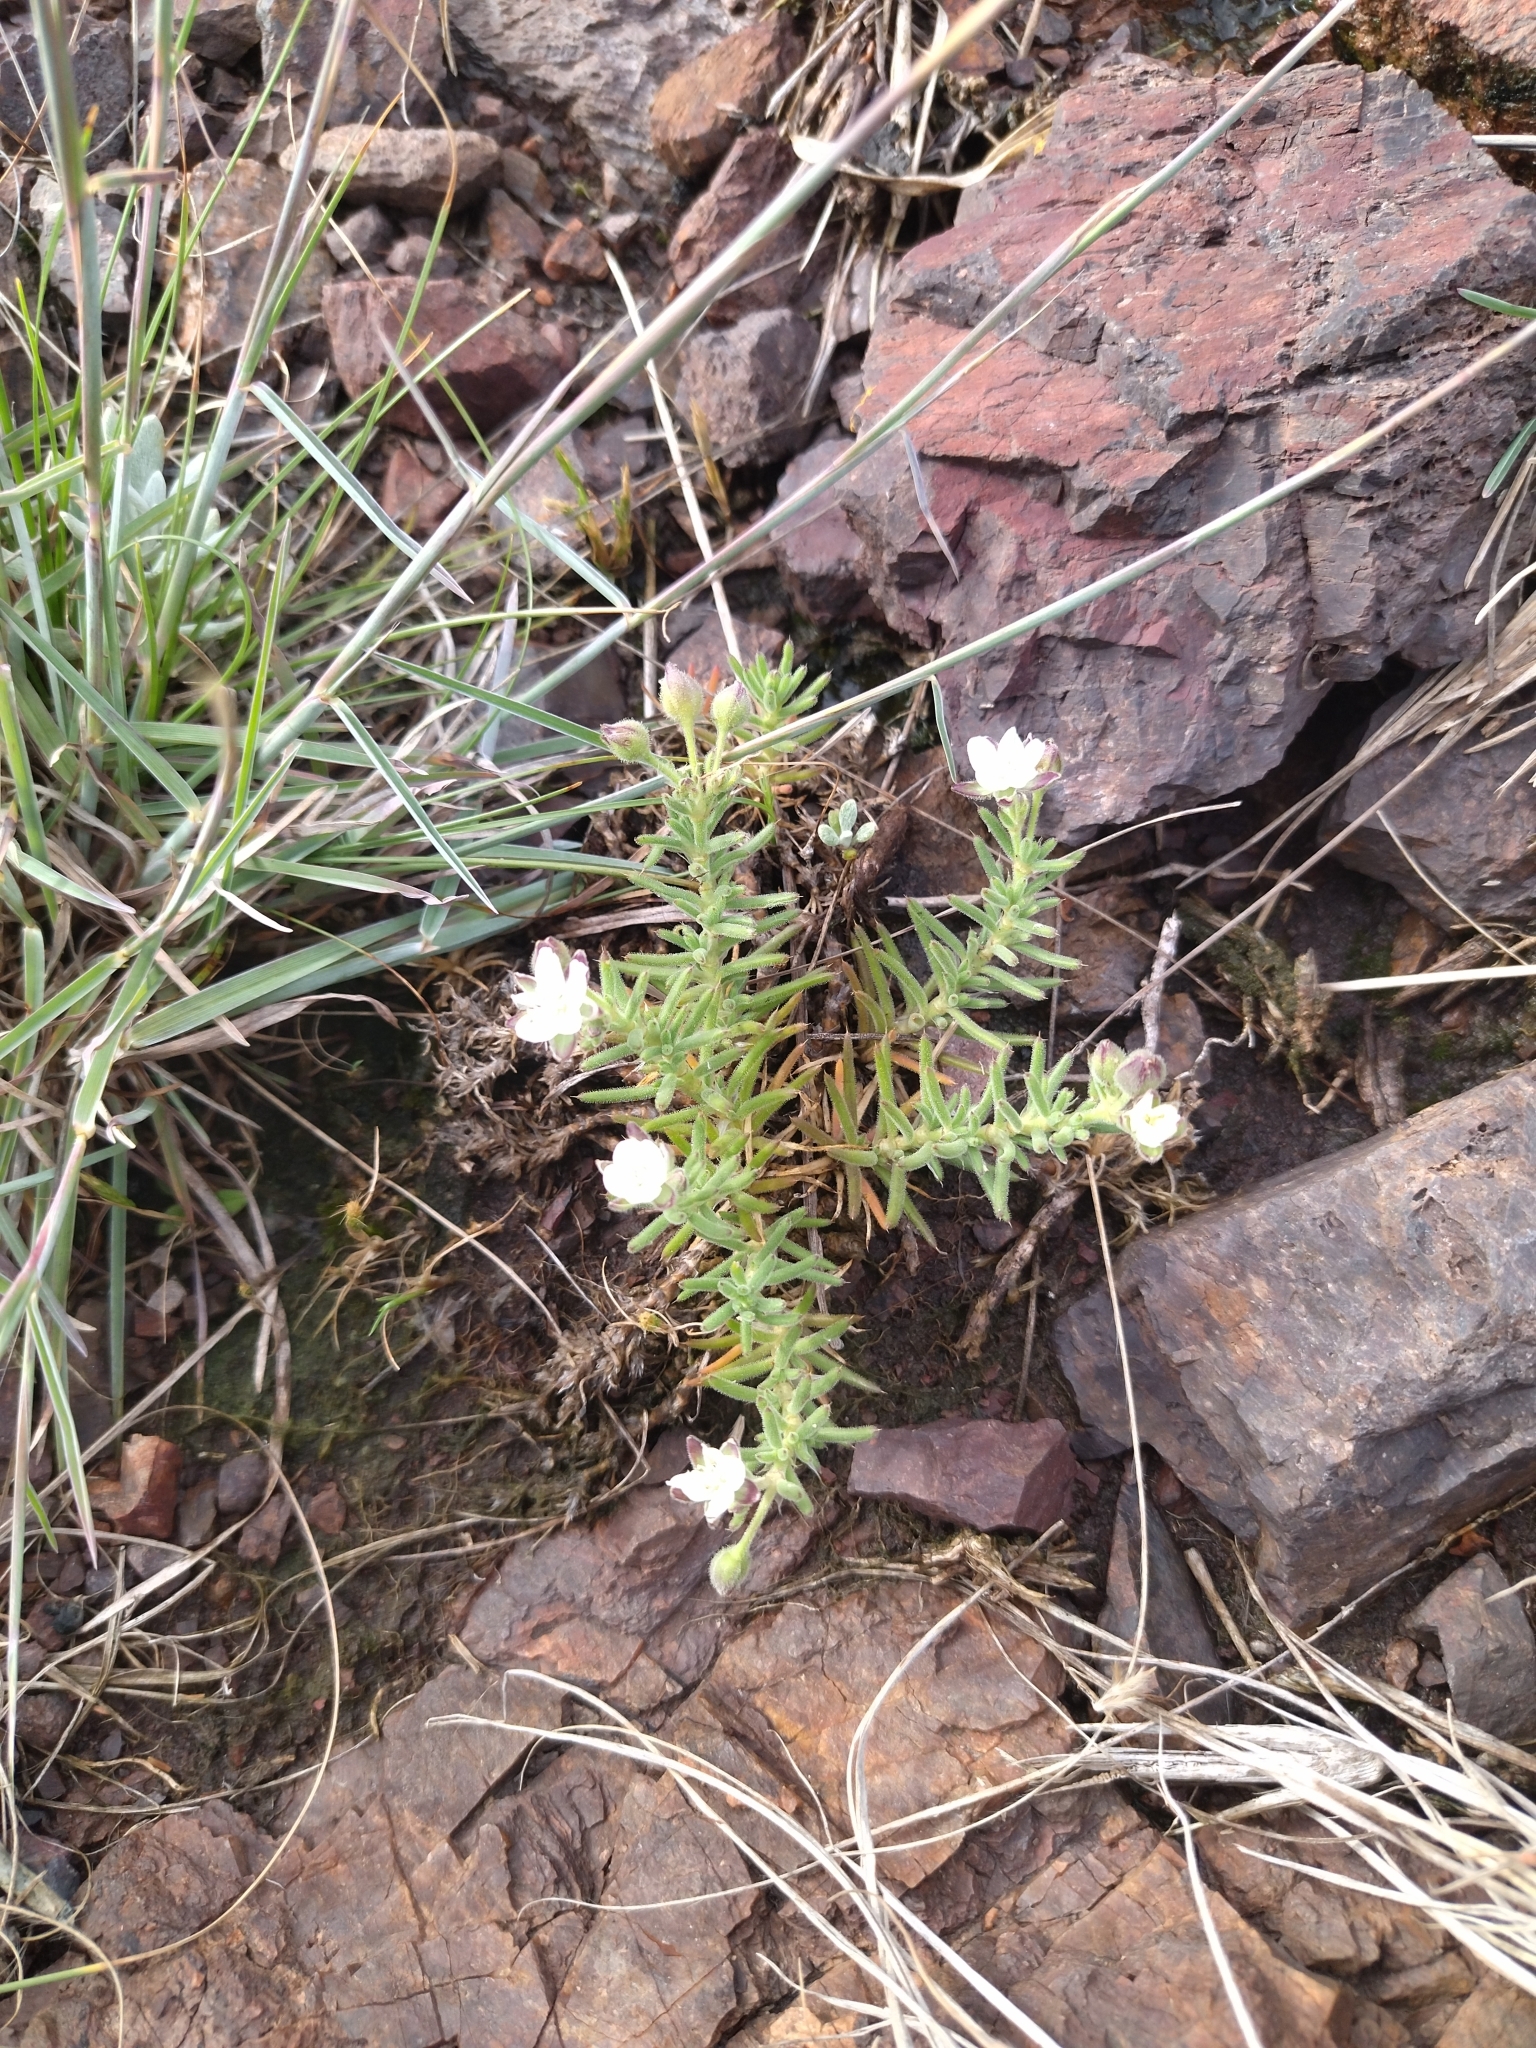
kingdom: Plantae
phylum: Tracheophyta
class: Magnoliopsida
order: Caryophyllales
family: Caryophyllaceae
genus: Spergularia
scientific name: Spergularia
